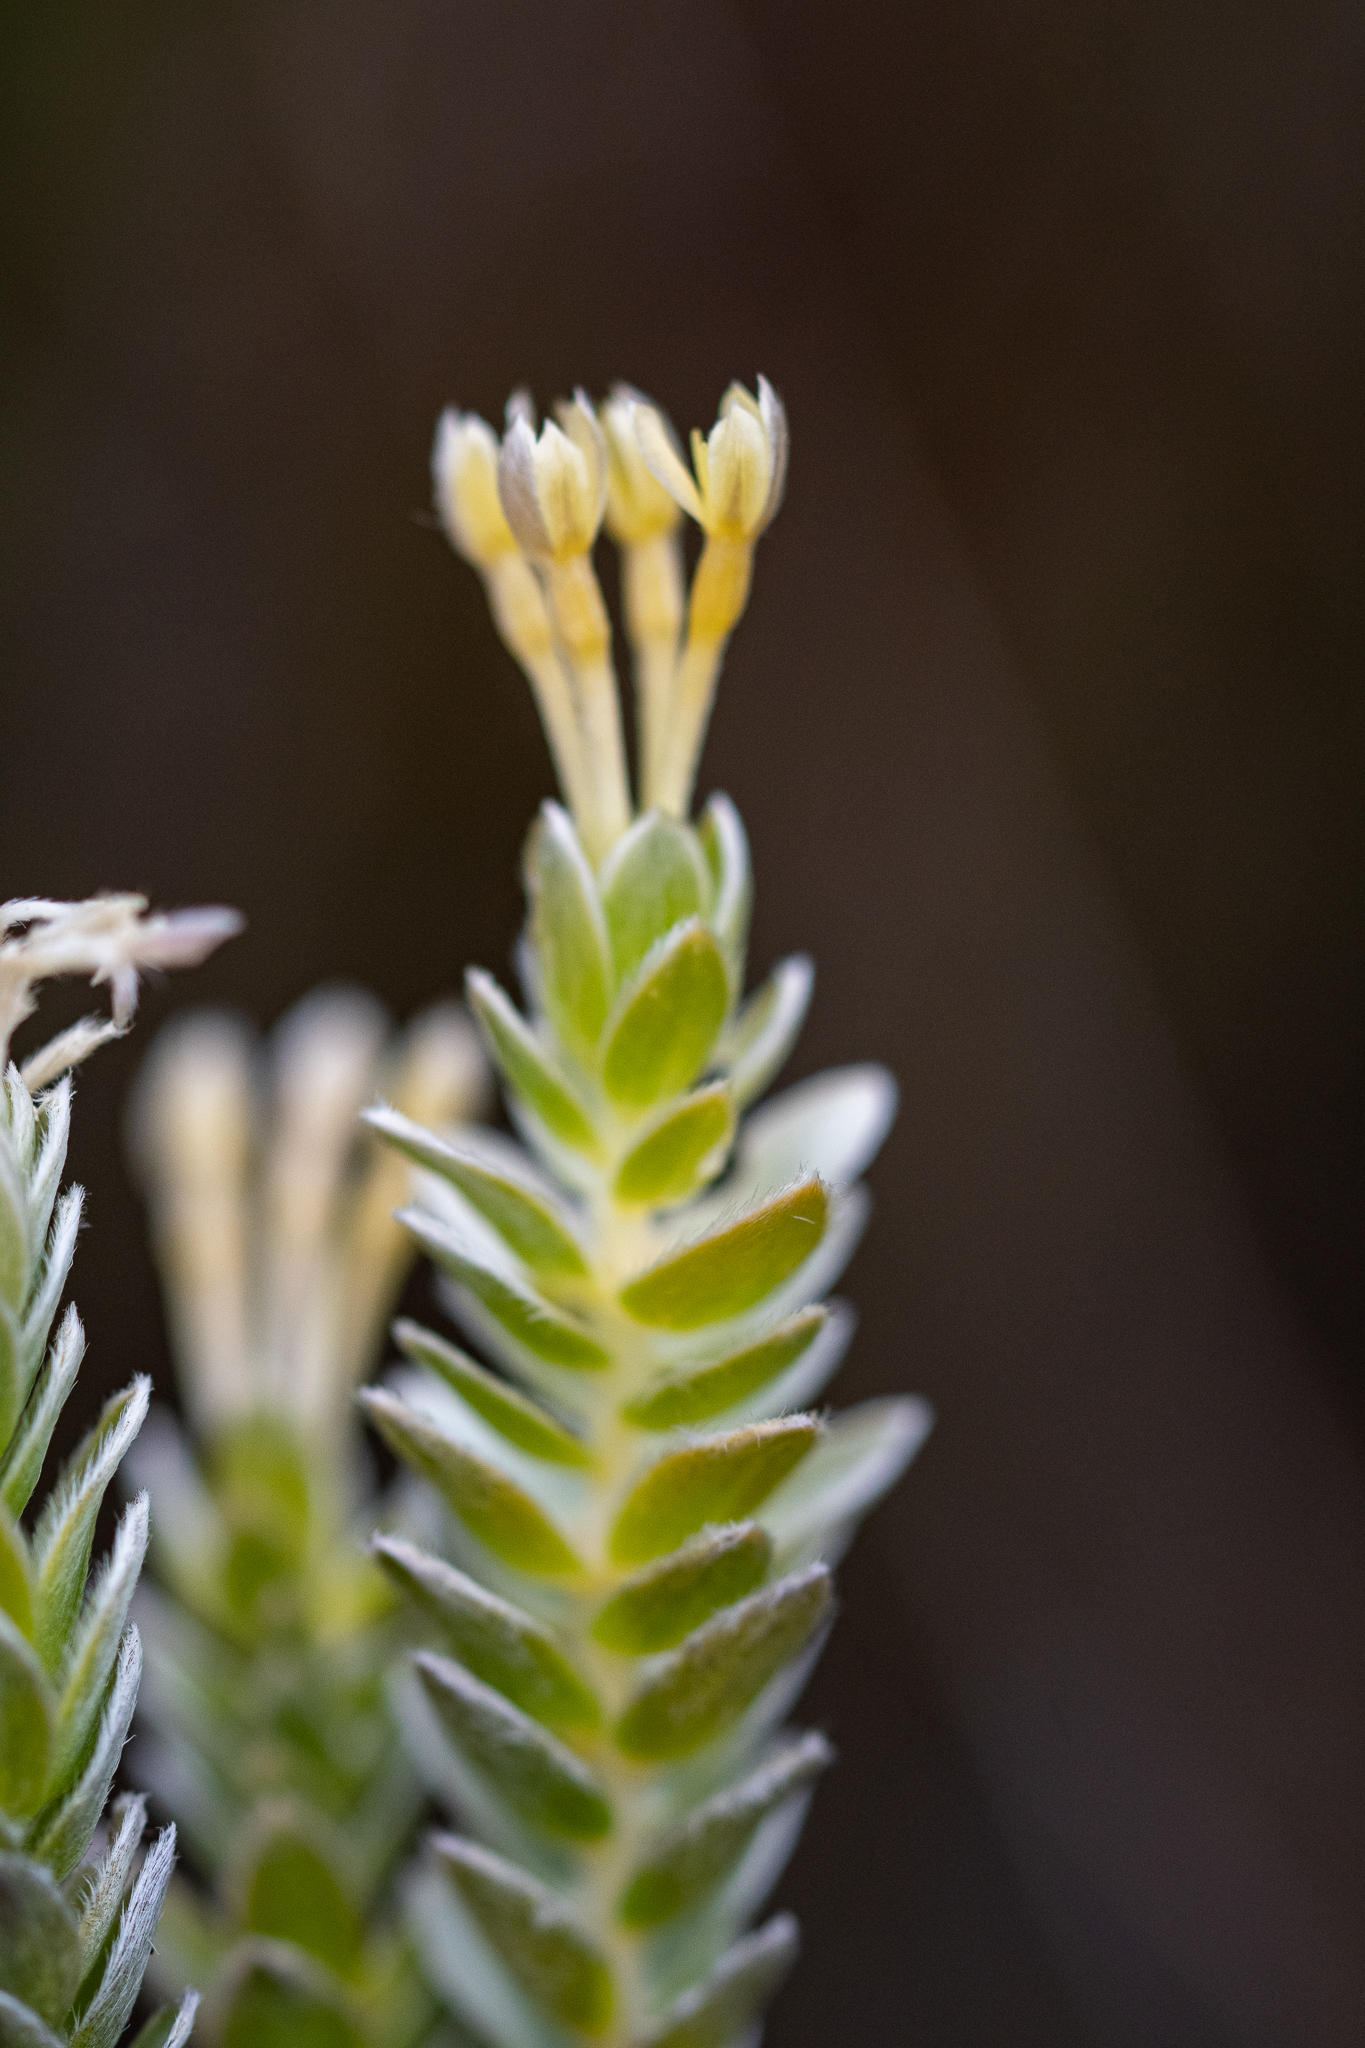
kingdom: Plantae
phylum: Tracheophyta
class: Magnoliopsida
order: Malvales
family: Thymelaeaceae
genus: Gnidia
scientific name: Gnidia anomala
